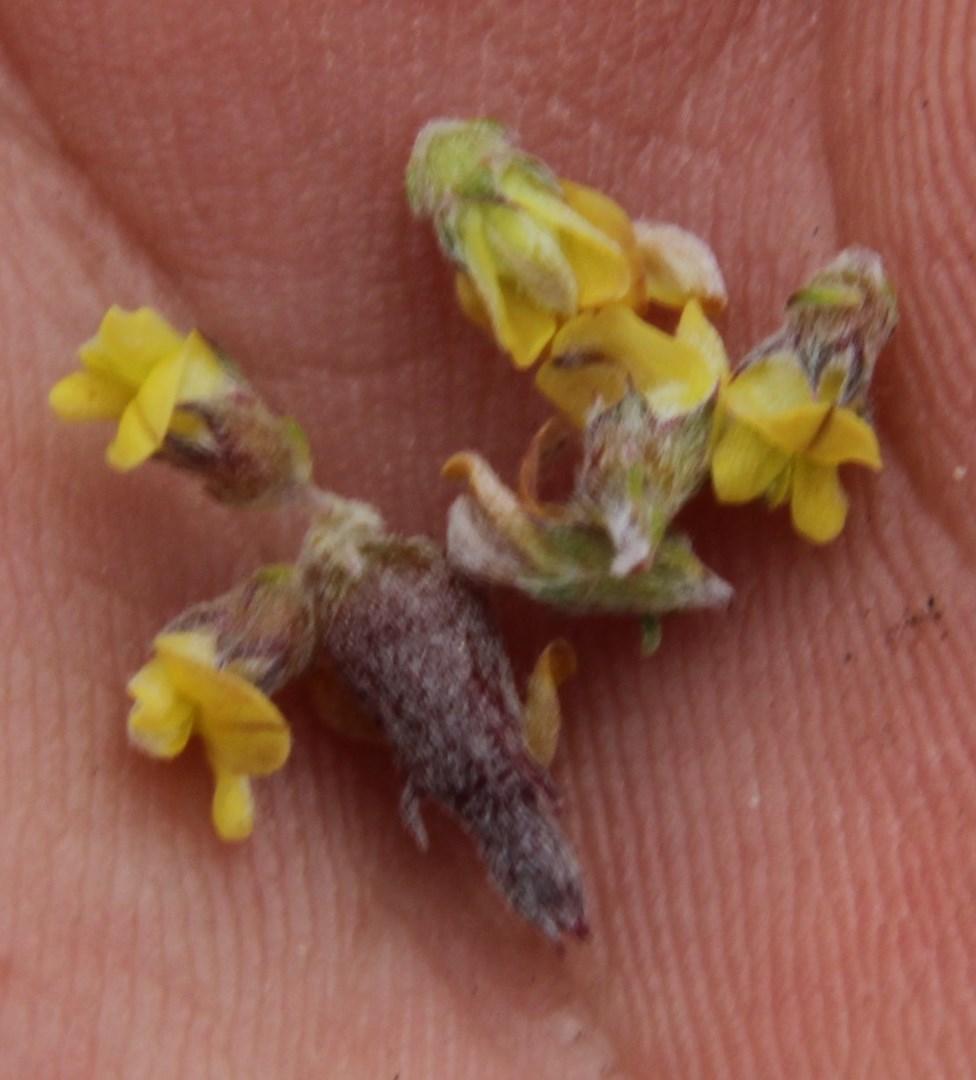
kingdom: Plantae
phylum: Tracheophyta
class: Magnoliopsida
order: Fabales
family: Fabaceae
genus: Aspalathus
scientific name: Aspalathus albens
